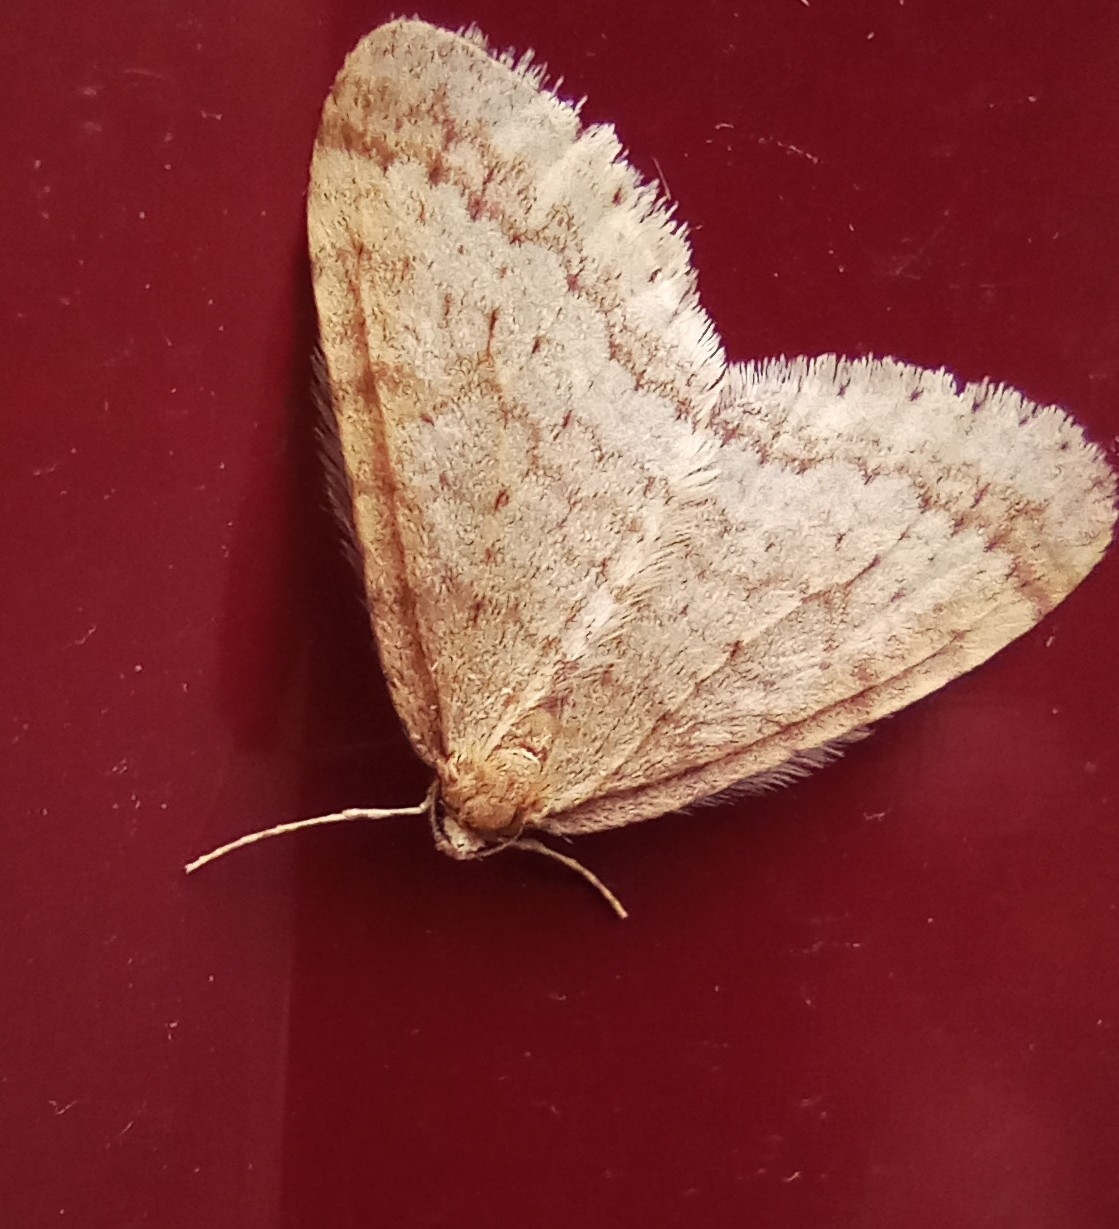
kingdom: Animalia
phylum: Arthropoda
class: Insecta
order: Lepidoptera
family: Geometridae
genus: Operophtera
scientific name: Operophtera brumata
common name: Winter moth
